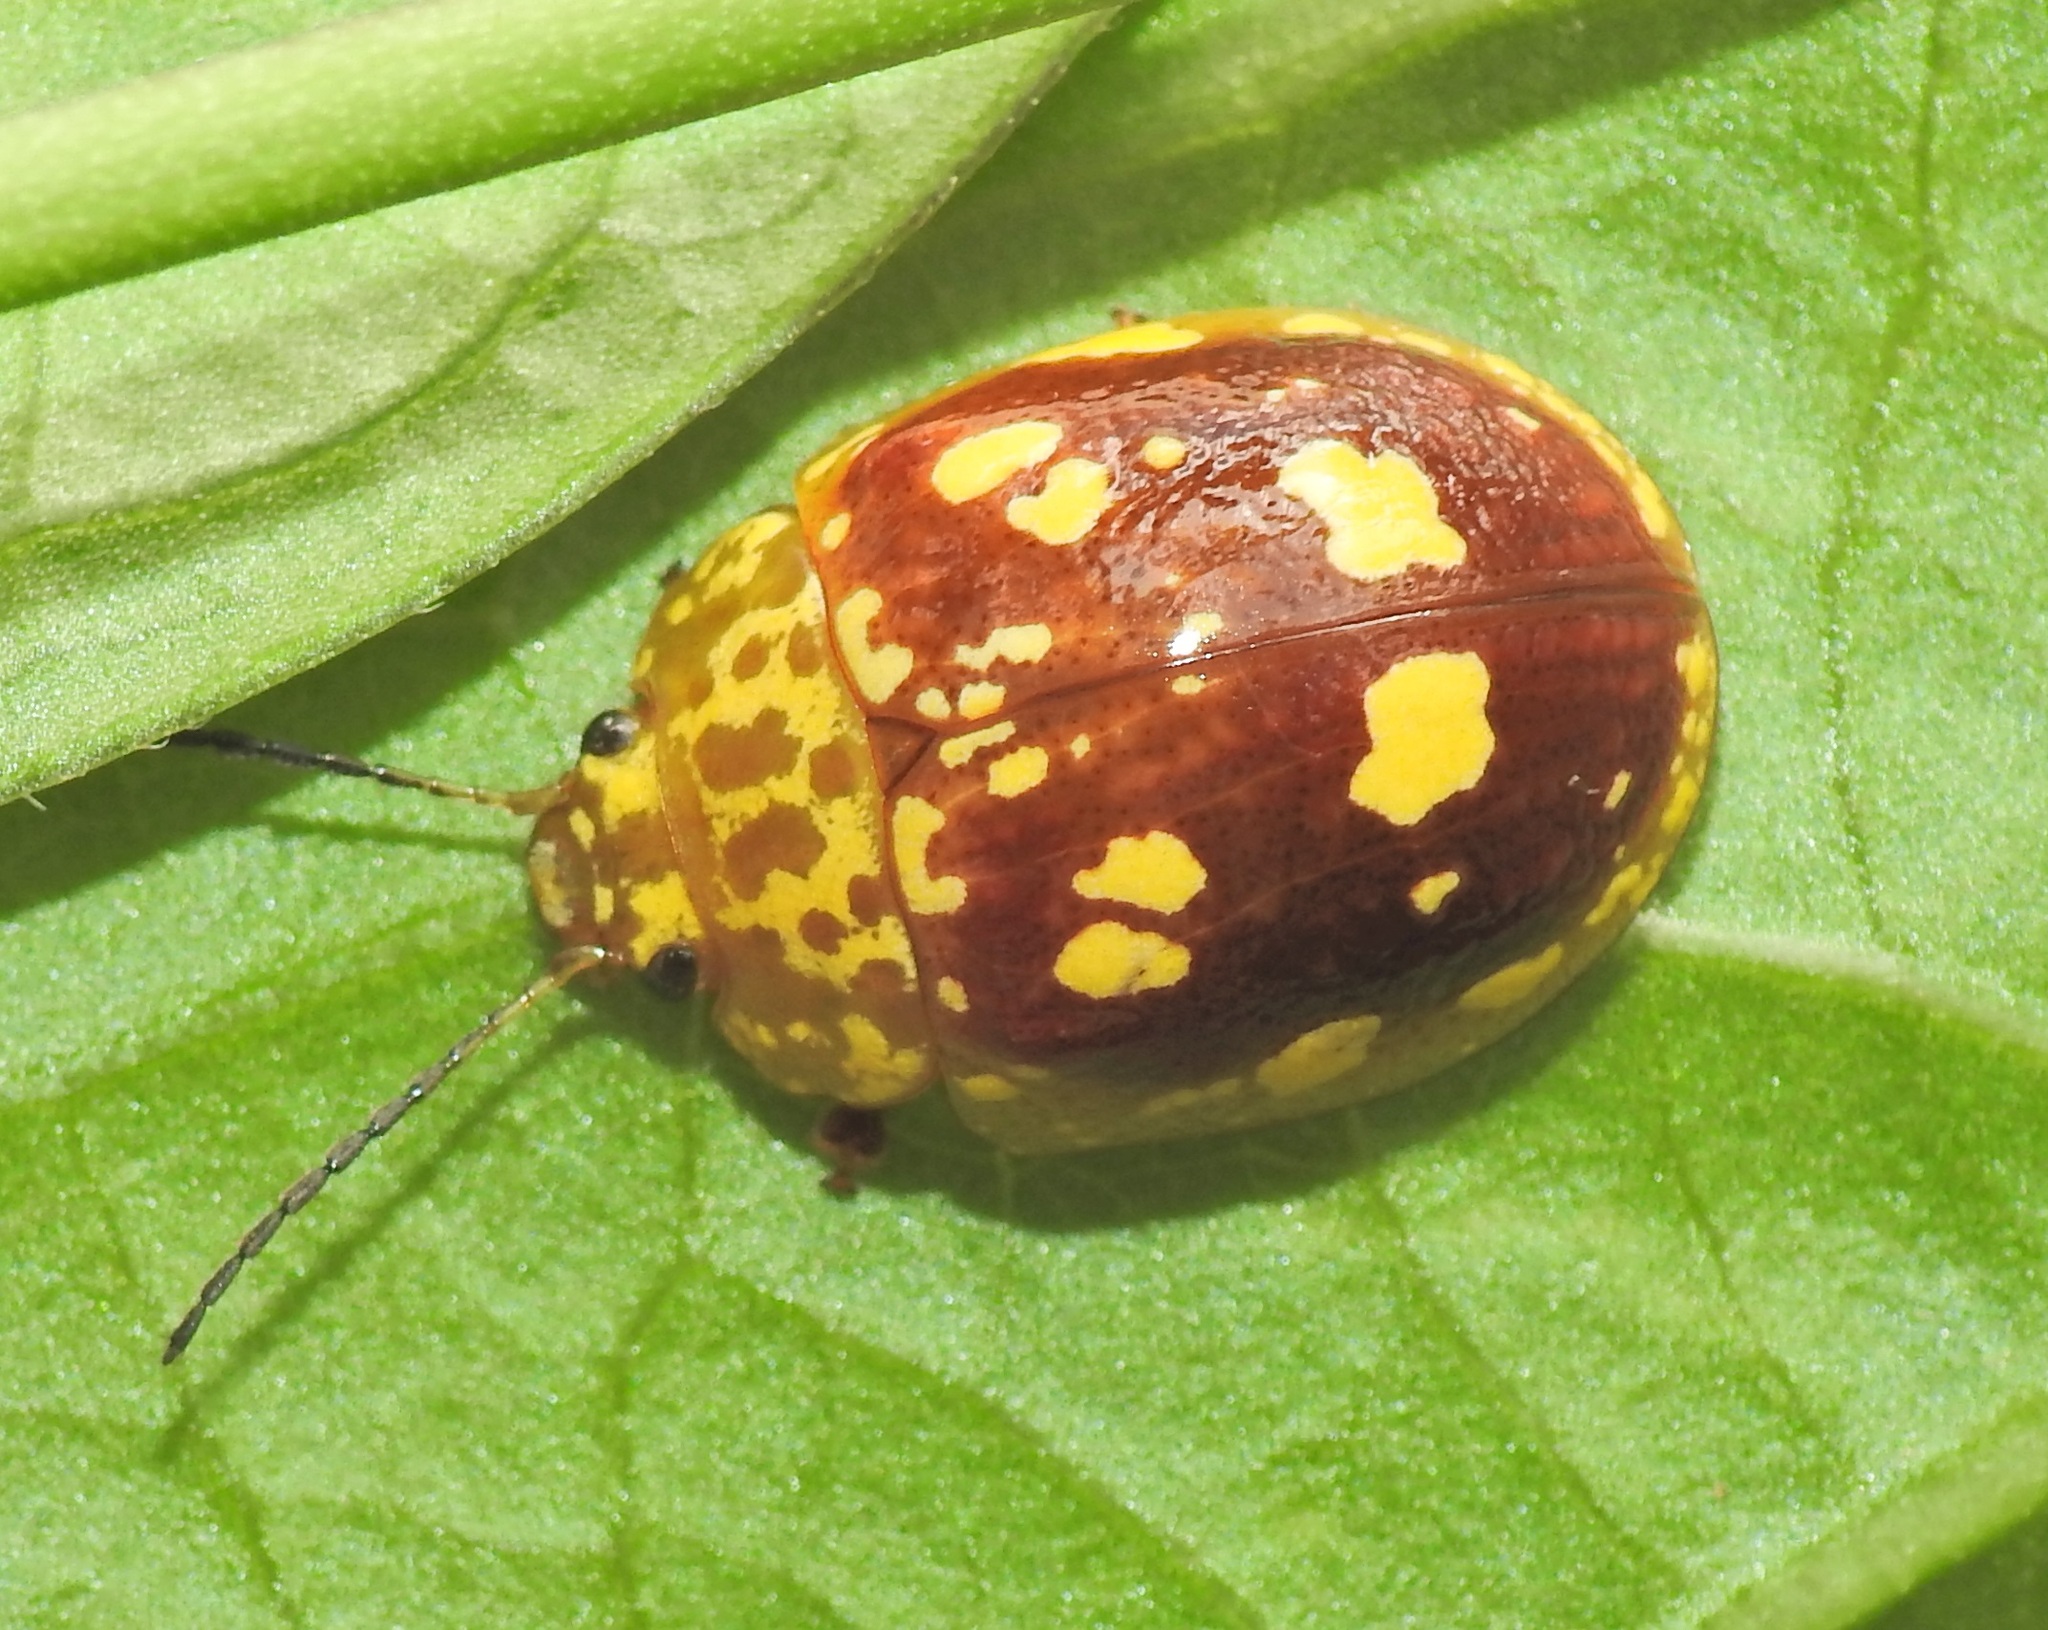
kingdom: Animalia
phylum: Arthropoda
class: Insecta
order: Coleoptera
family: Chrysomelidae
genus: Paropsis
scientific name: Paropsis maculata
